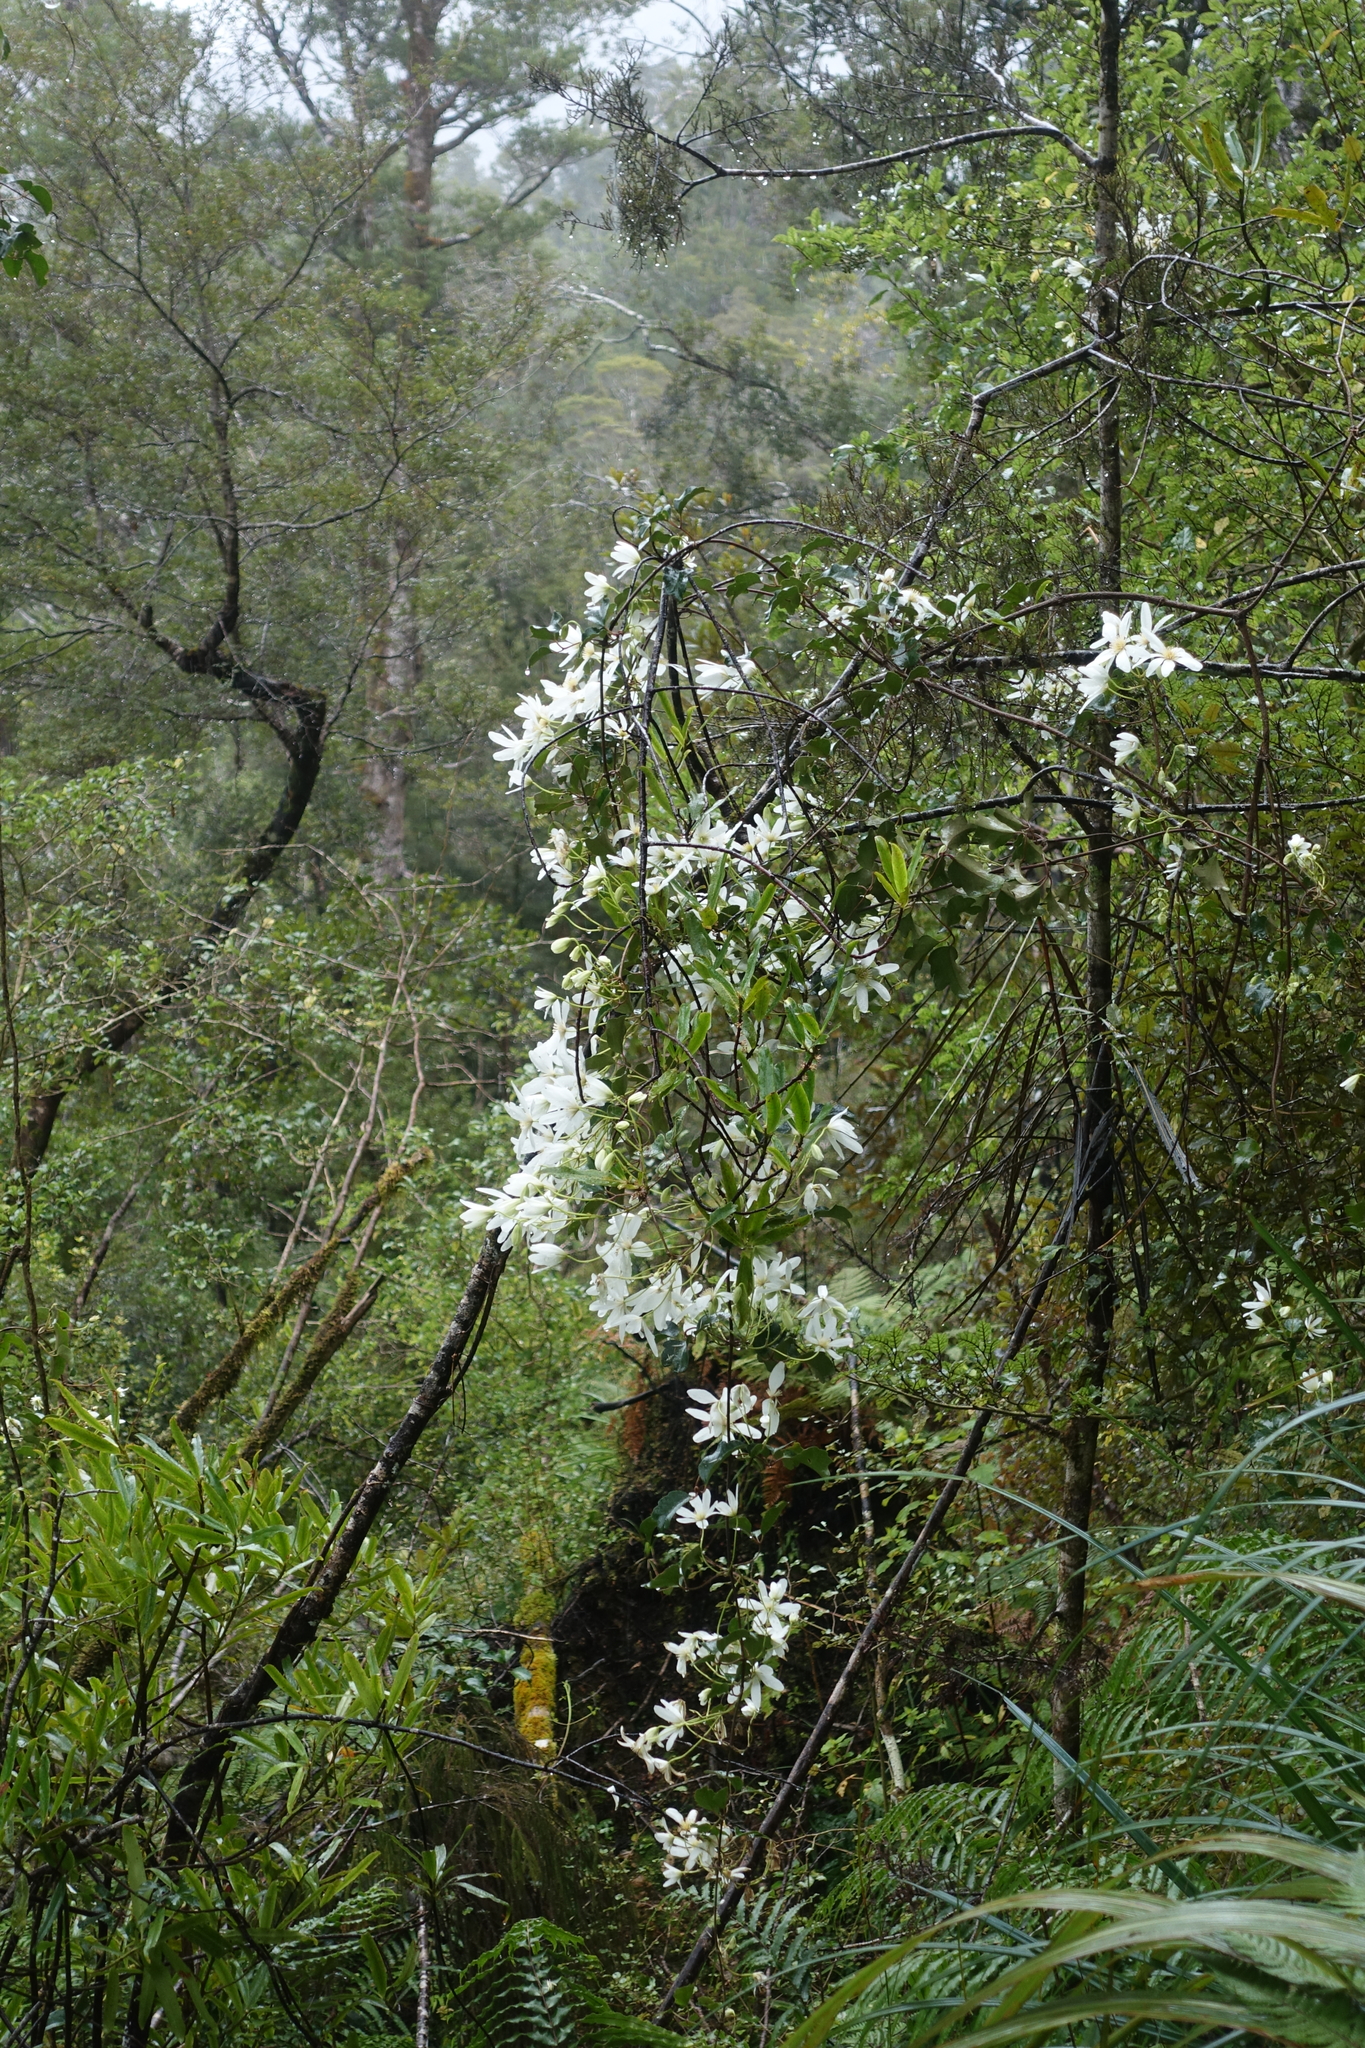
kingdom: Plantae
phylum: Tracheophyta
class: Magnoliopsida
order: Ranunculales
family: Ranunculaceae
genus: Clematis
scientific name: Clematis paniculata
